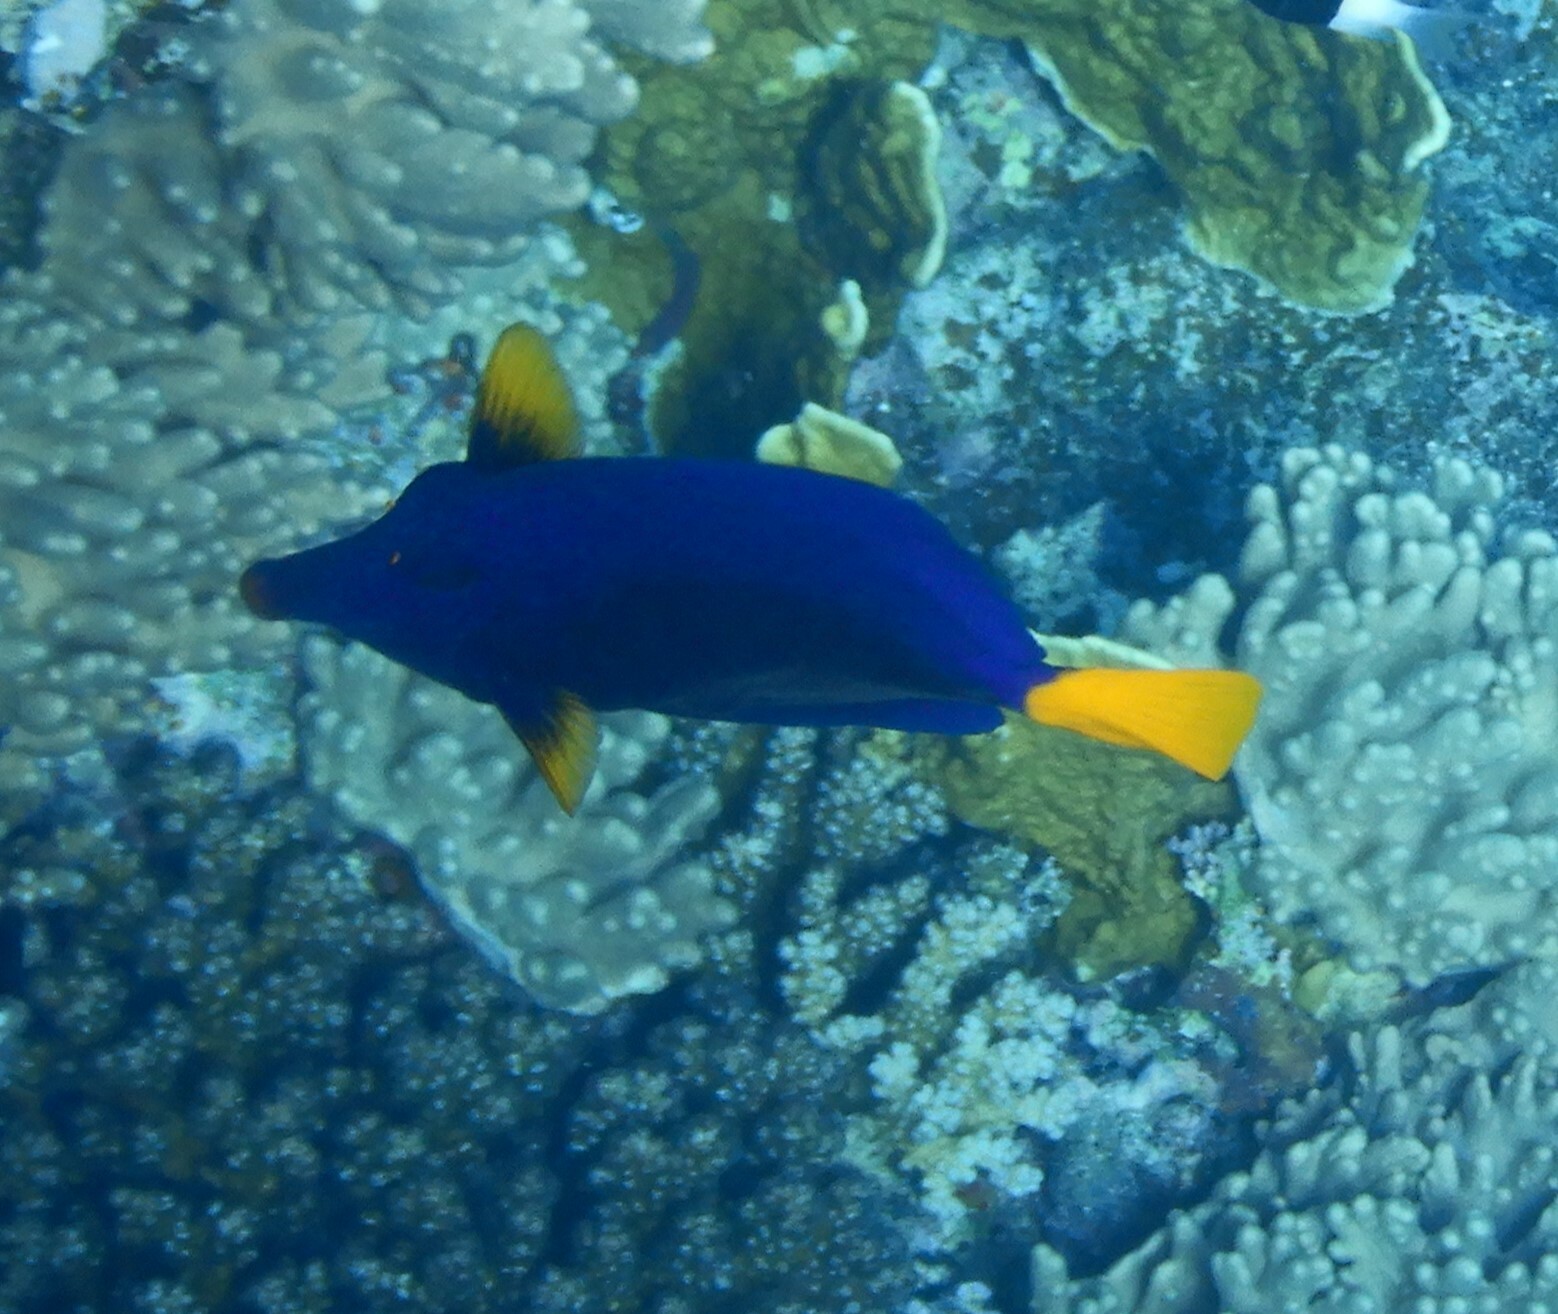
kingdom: Animalia
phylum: Chordata
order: Perciformes
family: Acanthuridae
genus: Zebrasoma
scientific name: Zebrasoma xanthurum
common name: Purple tang
